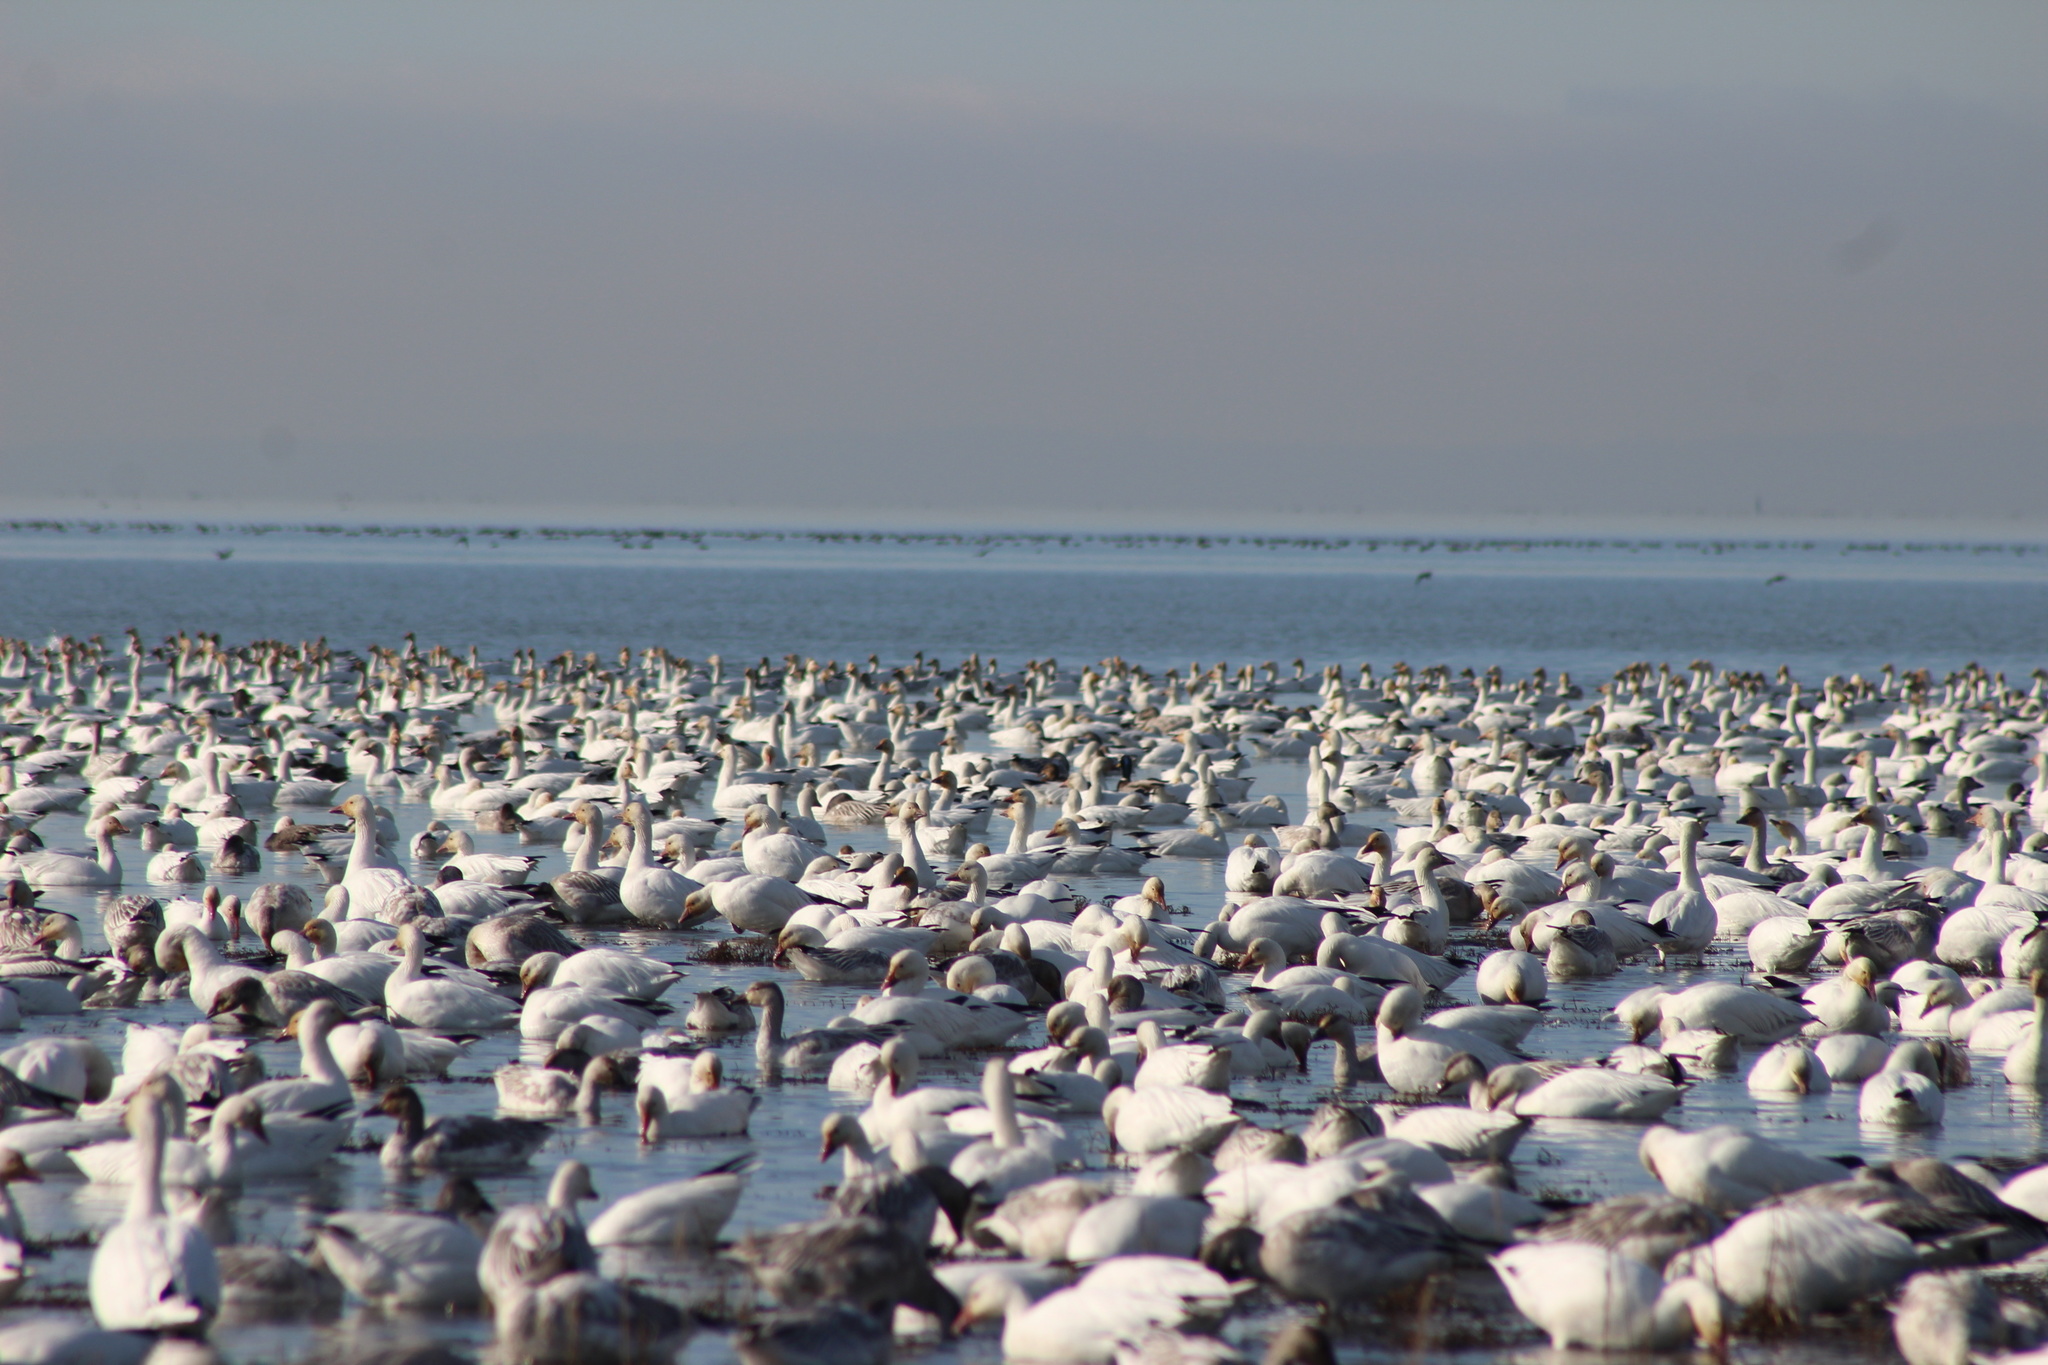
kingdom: Animalia
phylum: Chordata
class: Aves
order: Anseriformes
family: Anatidae
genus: Anser
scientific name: Anser caerulescens
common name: Snow goose
